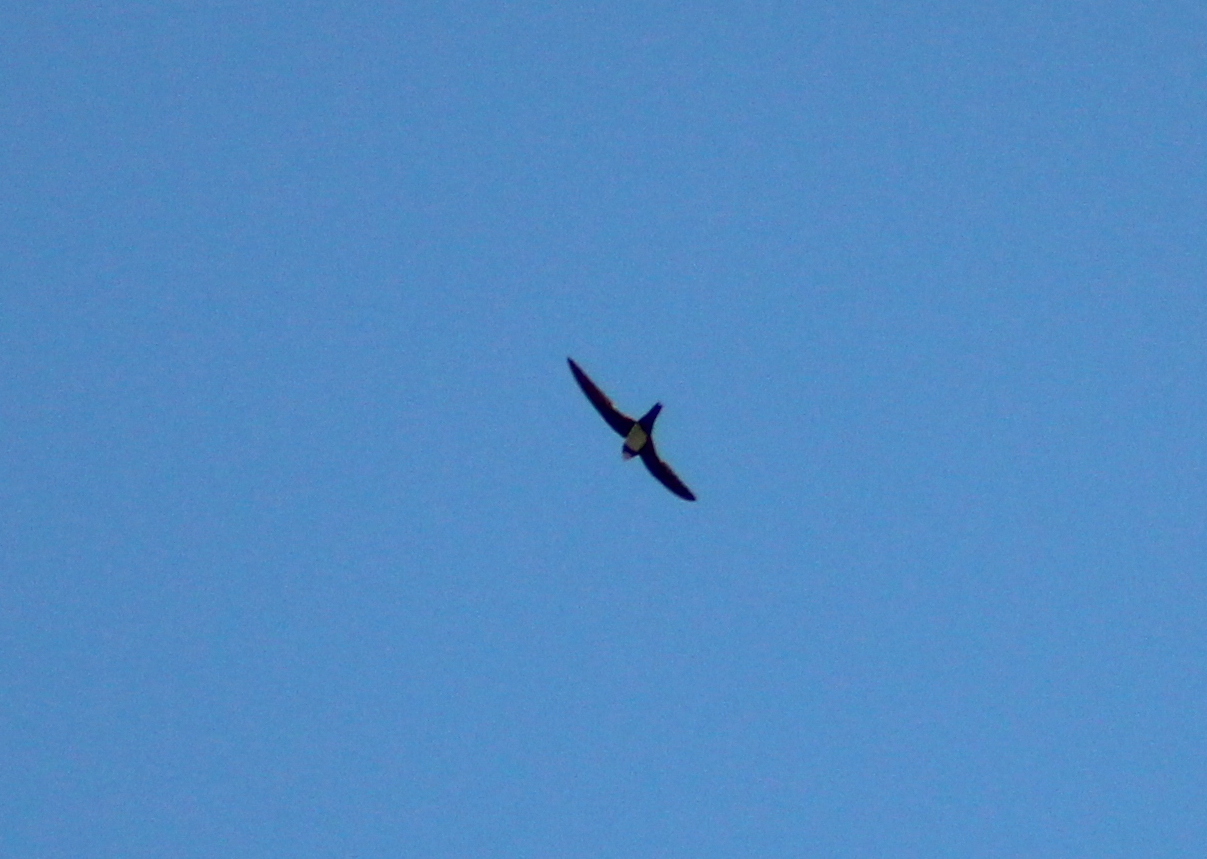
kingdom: Animalia
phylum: Chordata
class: Aves
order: Apodiformes
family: Apodidae
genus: Tachymarptis
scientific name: Tachymarptis melba
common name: Alpine swift
